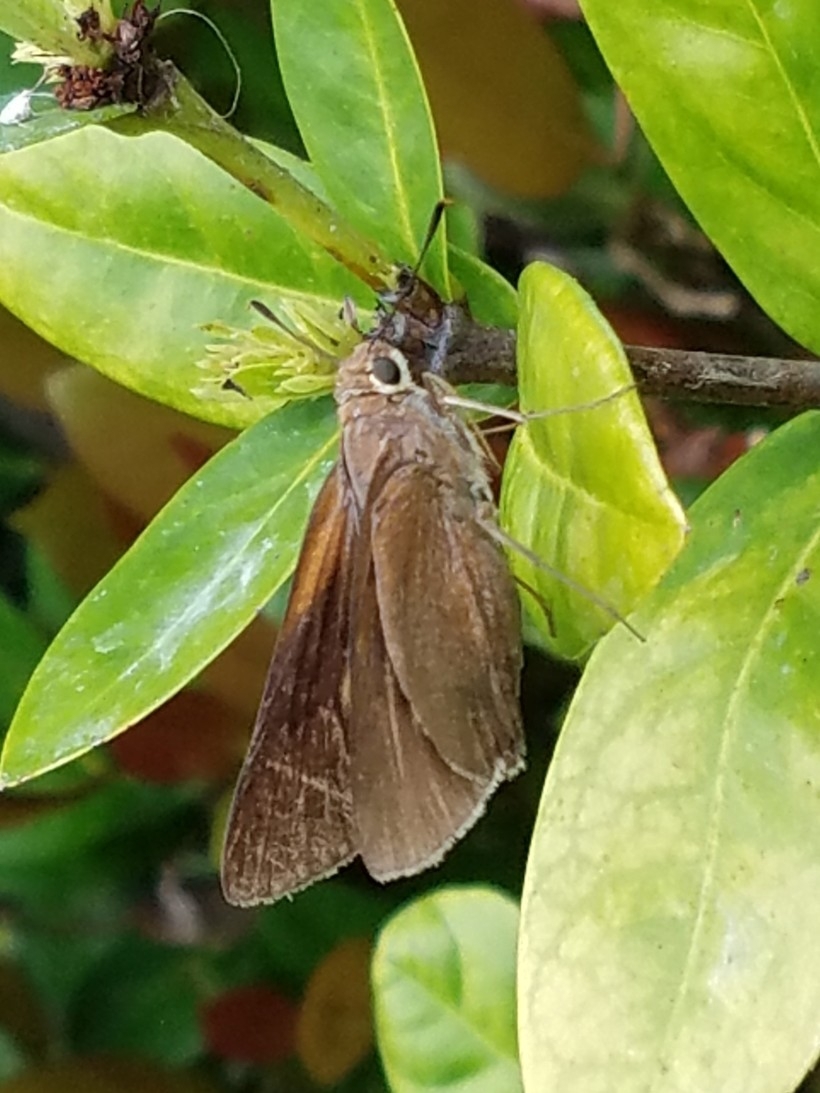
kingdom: Animalia
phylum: Arthropoda
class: Insecta
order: Lepidoptera
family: Hesperiidae
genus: Asbolis
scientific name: Asbolis capucinus
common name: Monk skipper
